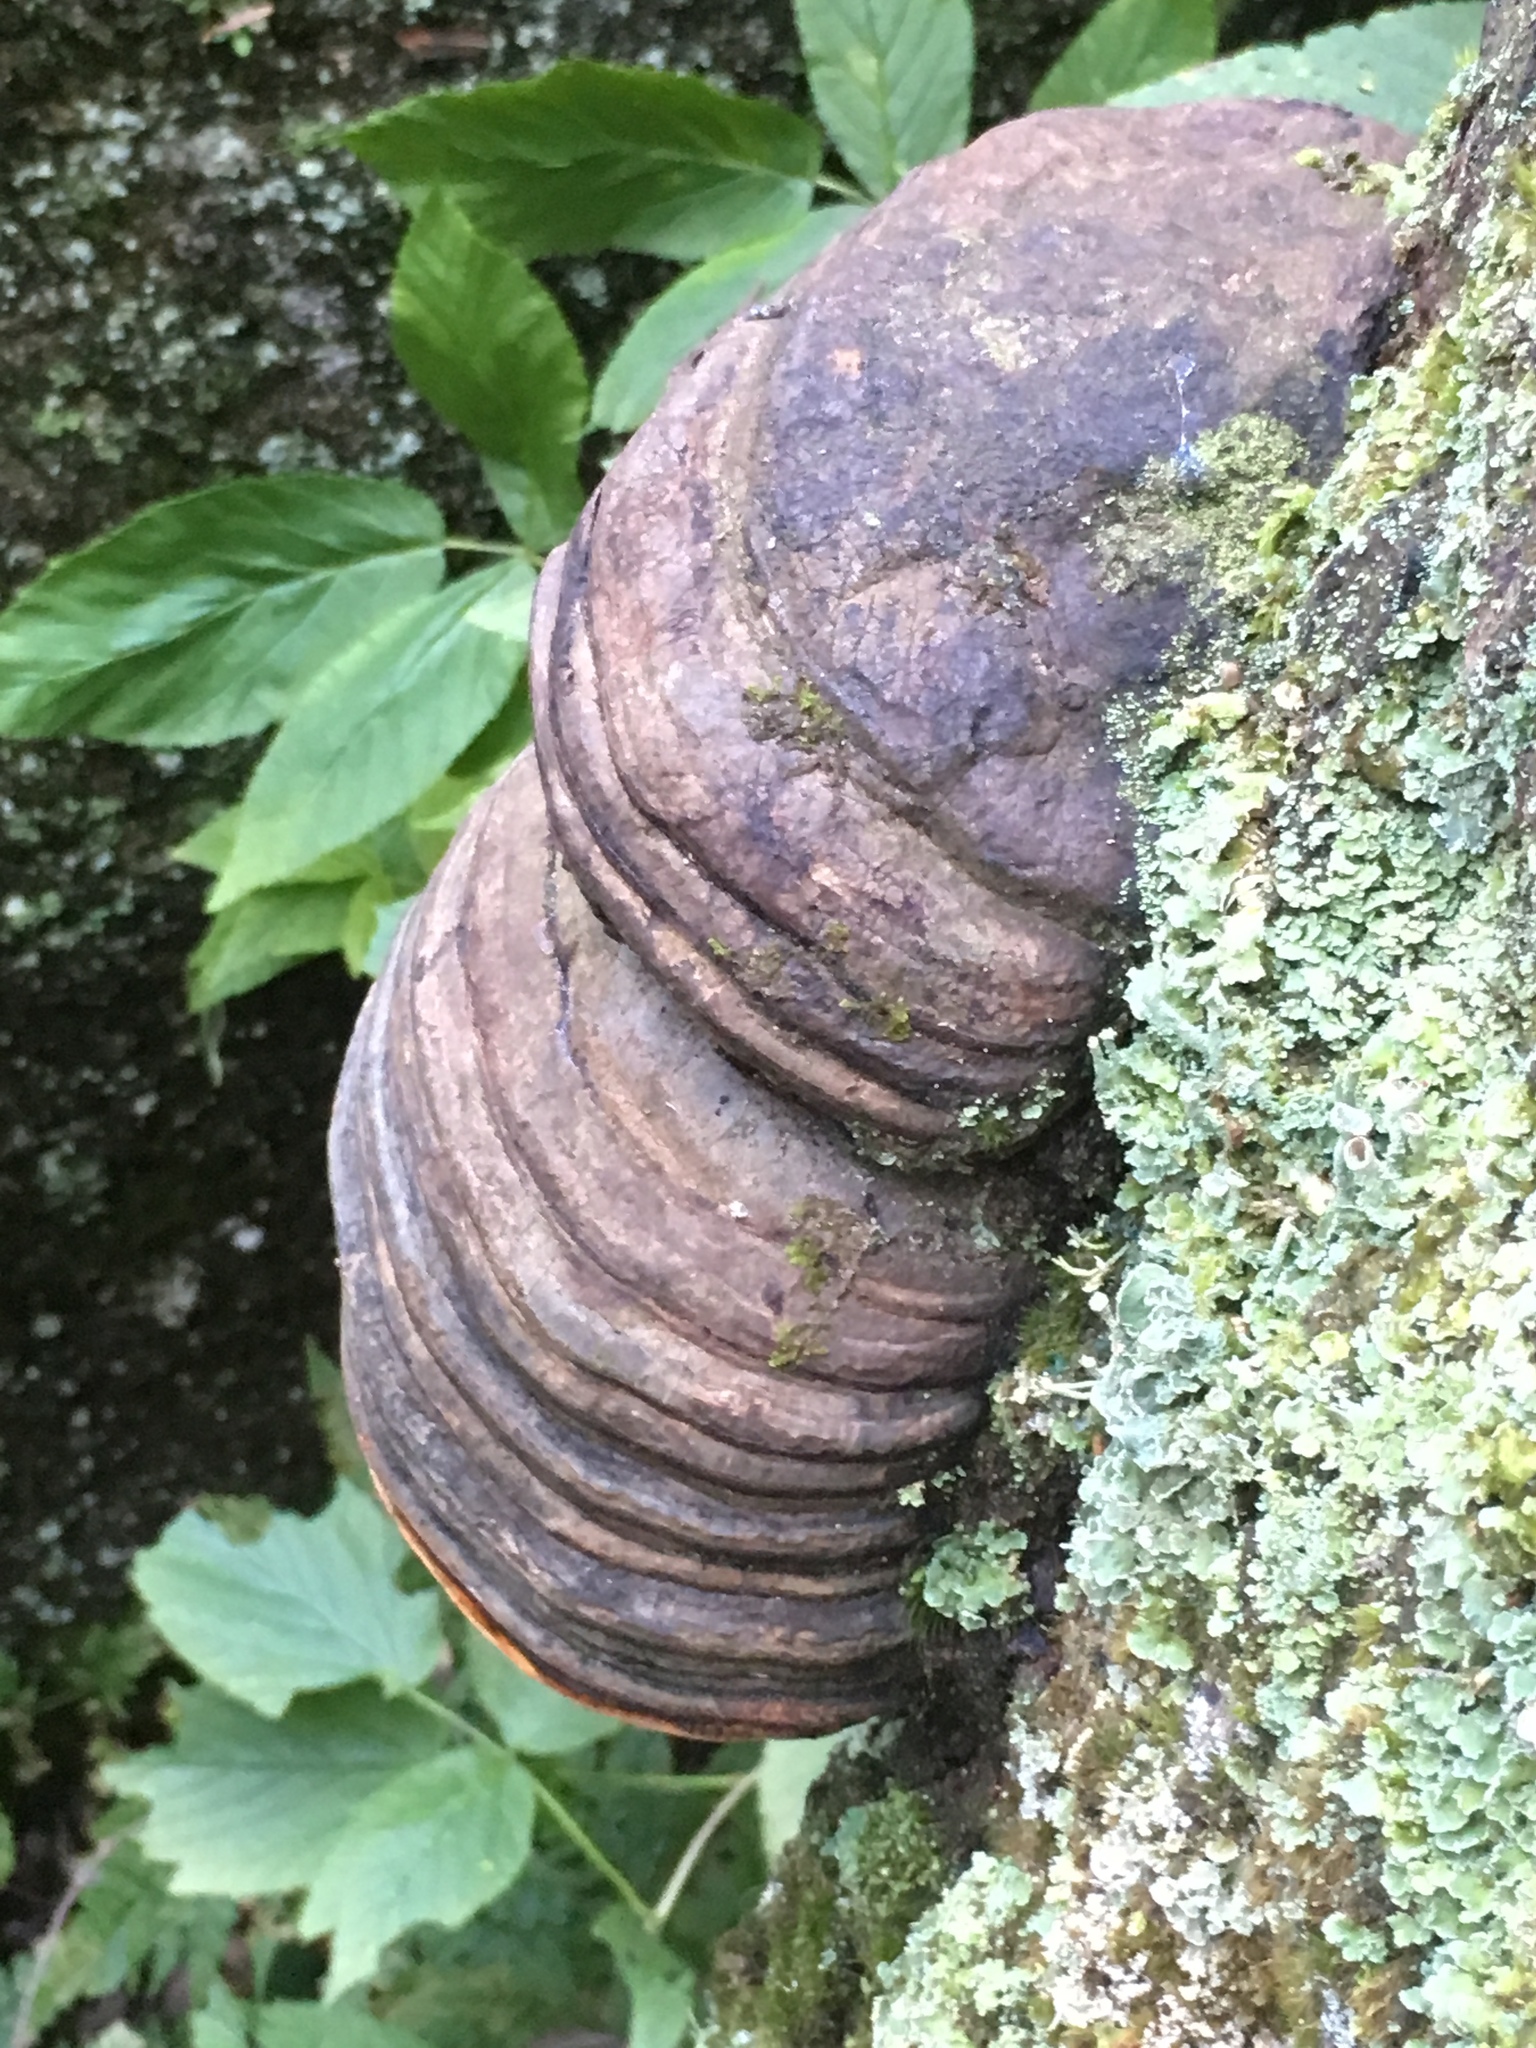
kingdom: Fungi
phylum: Basidiomycota
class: Agaricomycetes
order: Polyporales
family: Fomitopsidaceae
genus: Fomitopsis
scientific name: Fomitopsis pinicola
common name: Red-belted bracket
